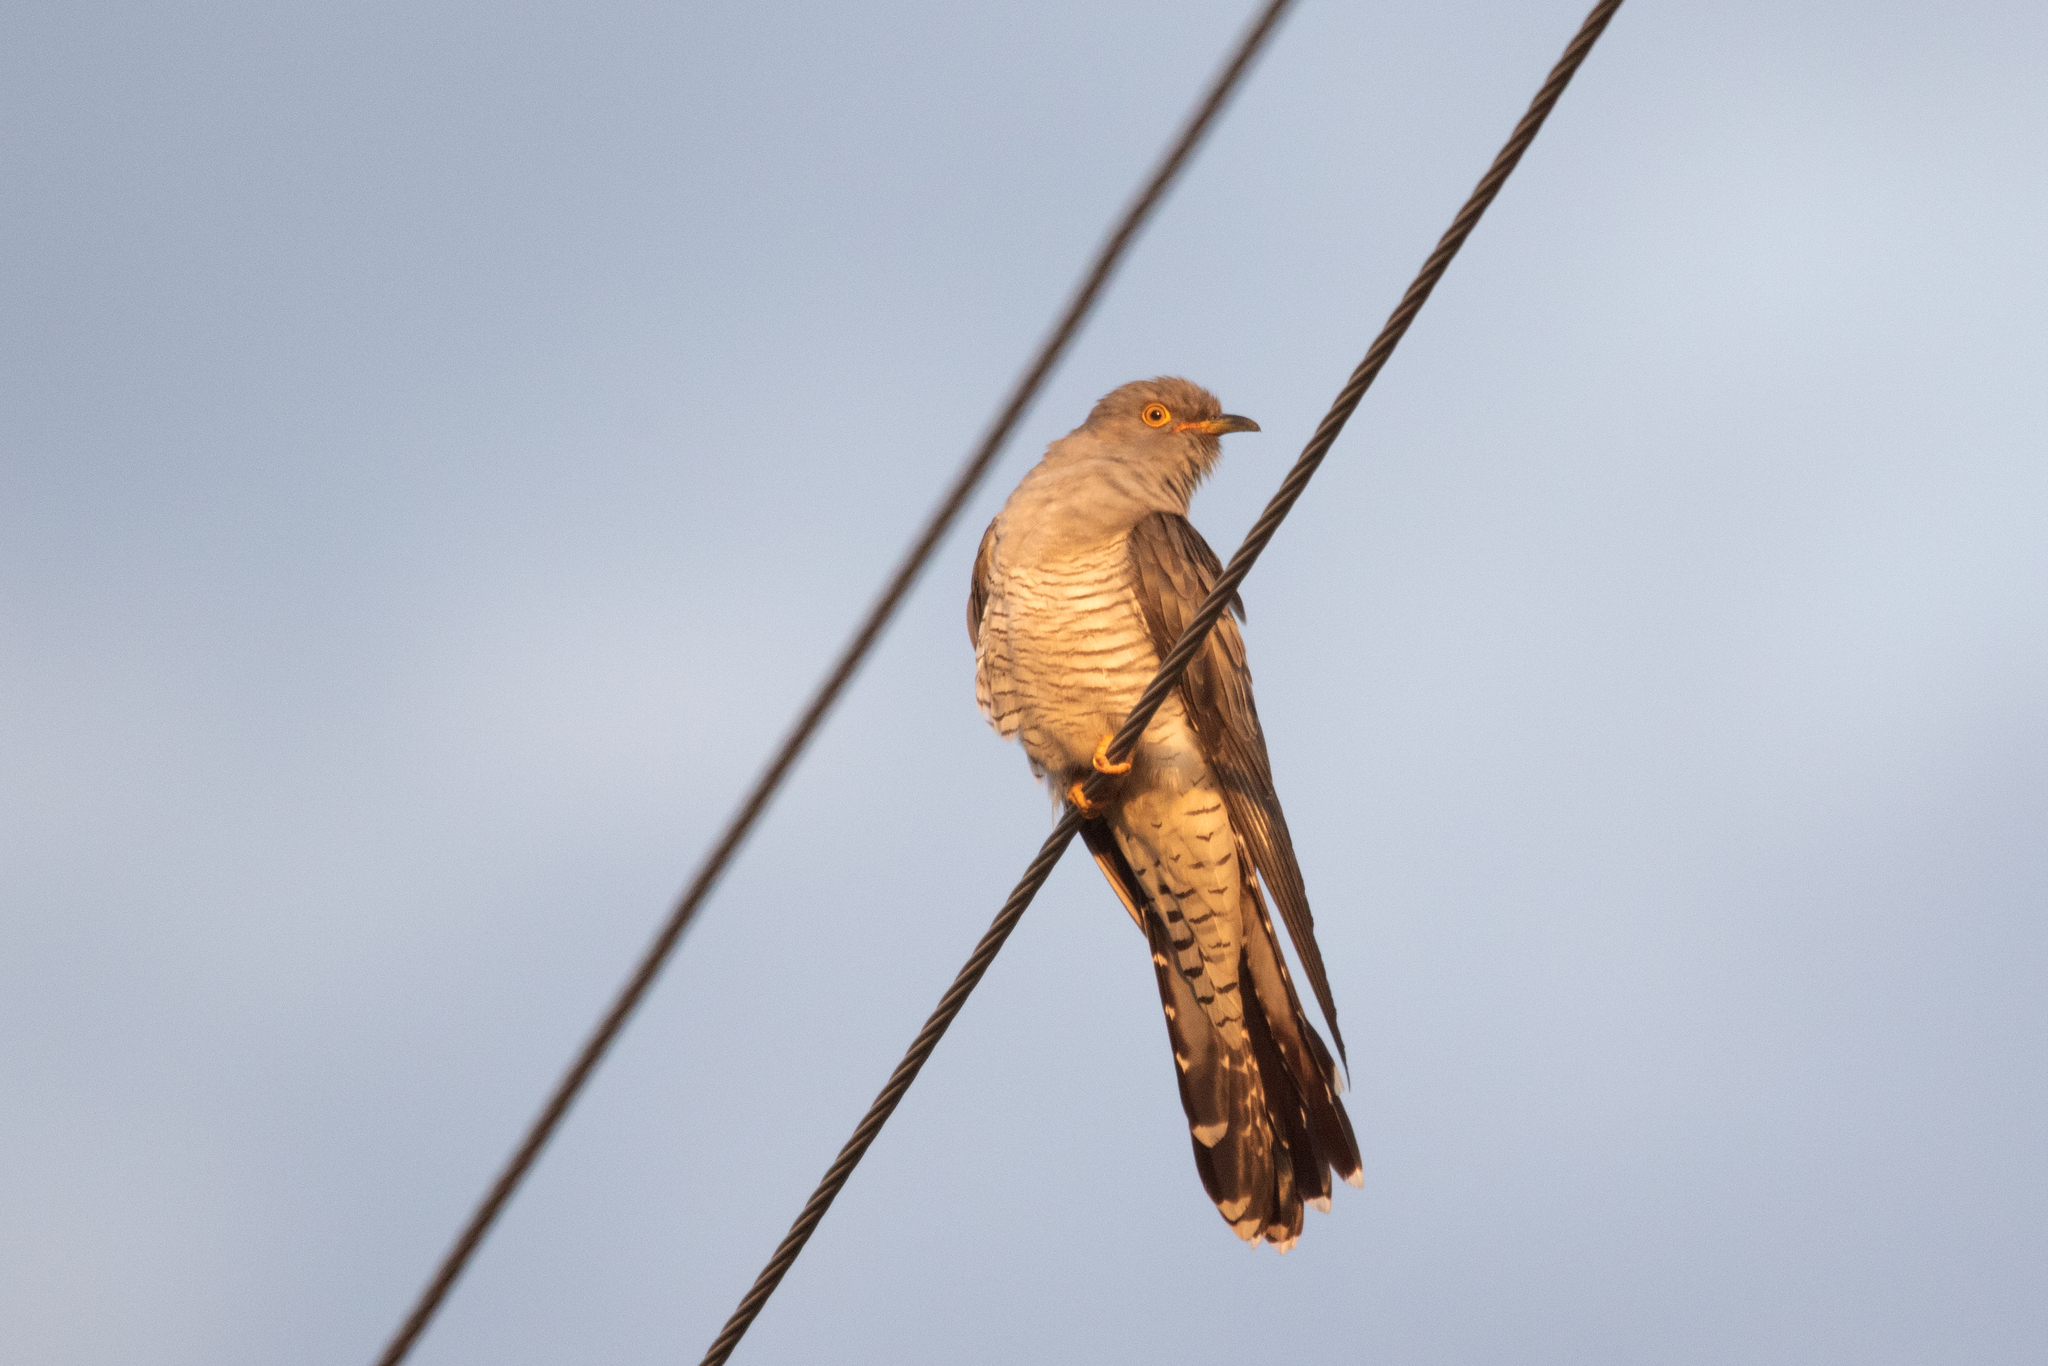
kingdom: Animalia
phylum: Chordata
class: Aves
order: Cuculiformes
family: Cuculidae
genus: Cuculus
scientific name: Cuculus canorus
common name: Common cuckoo
